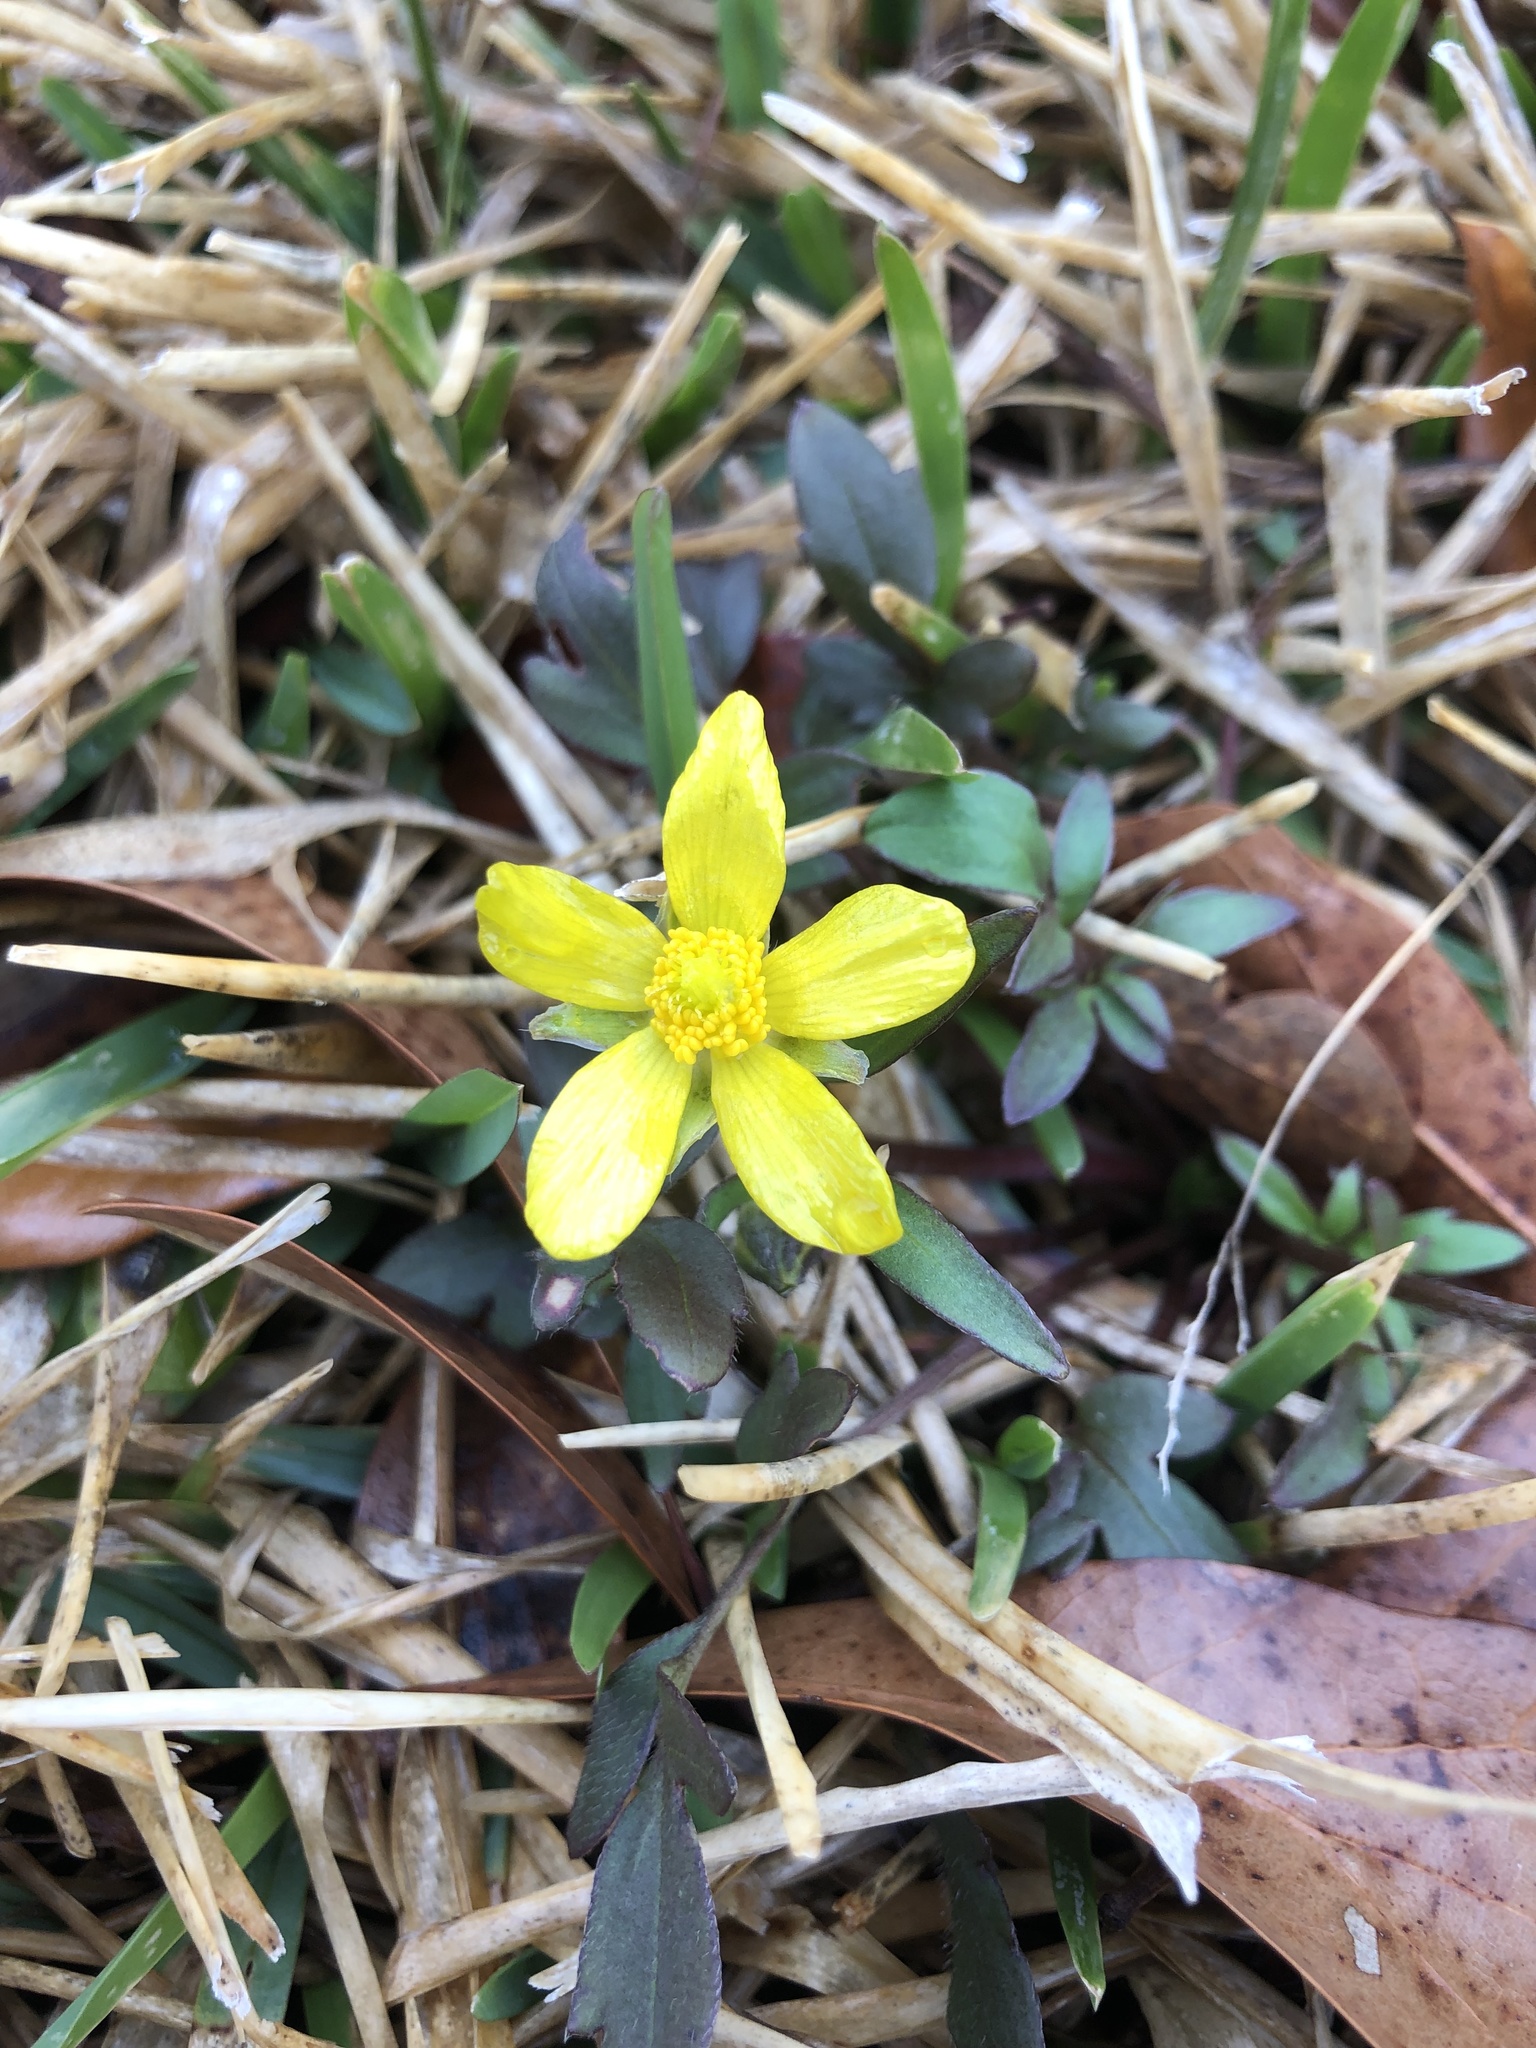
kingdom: Plantae
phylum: Tracheophyta
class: Magnoliopsida
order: Ranunculales
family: Ranunculaceae
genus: Ranunculus
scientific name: Ranunculus fascicularis
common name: Early buttercup
